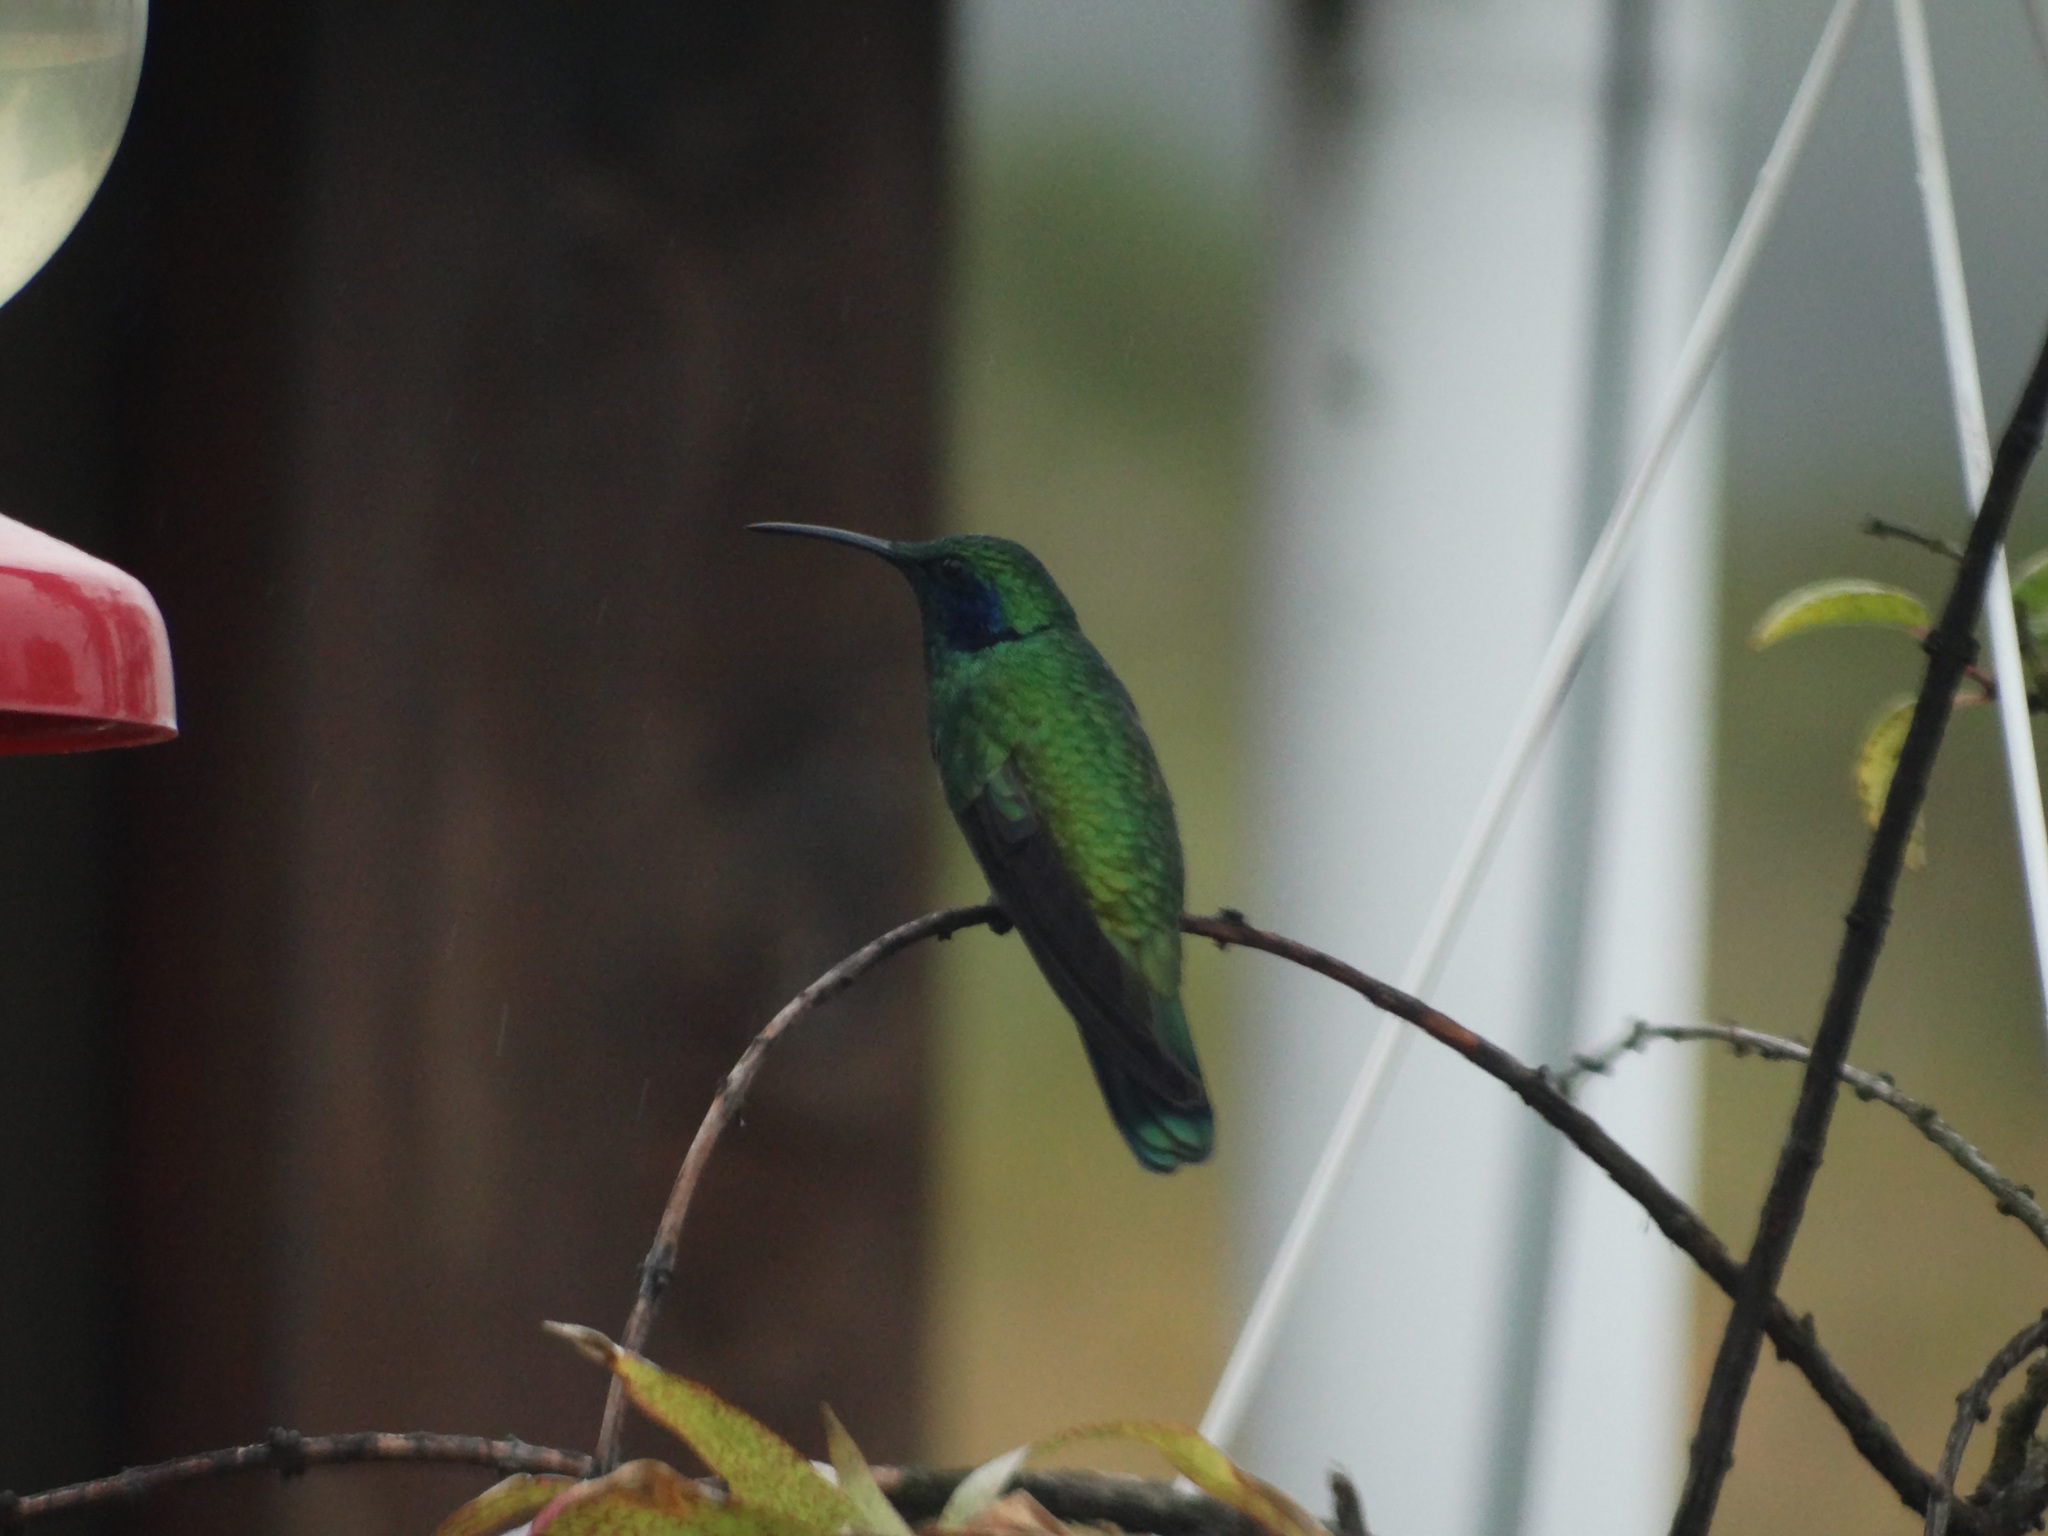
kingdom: Animalia
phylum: Chordata
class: Aves
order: Apodiformes
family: Trochilidae
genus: Colibri
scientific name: Colibri cyanotus
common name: Lesser violetear
